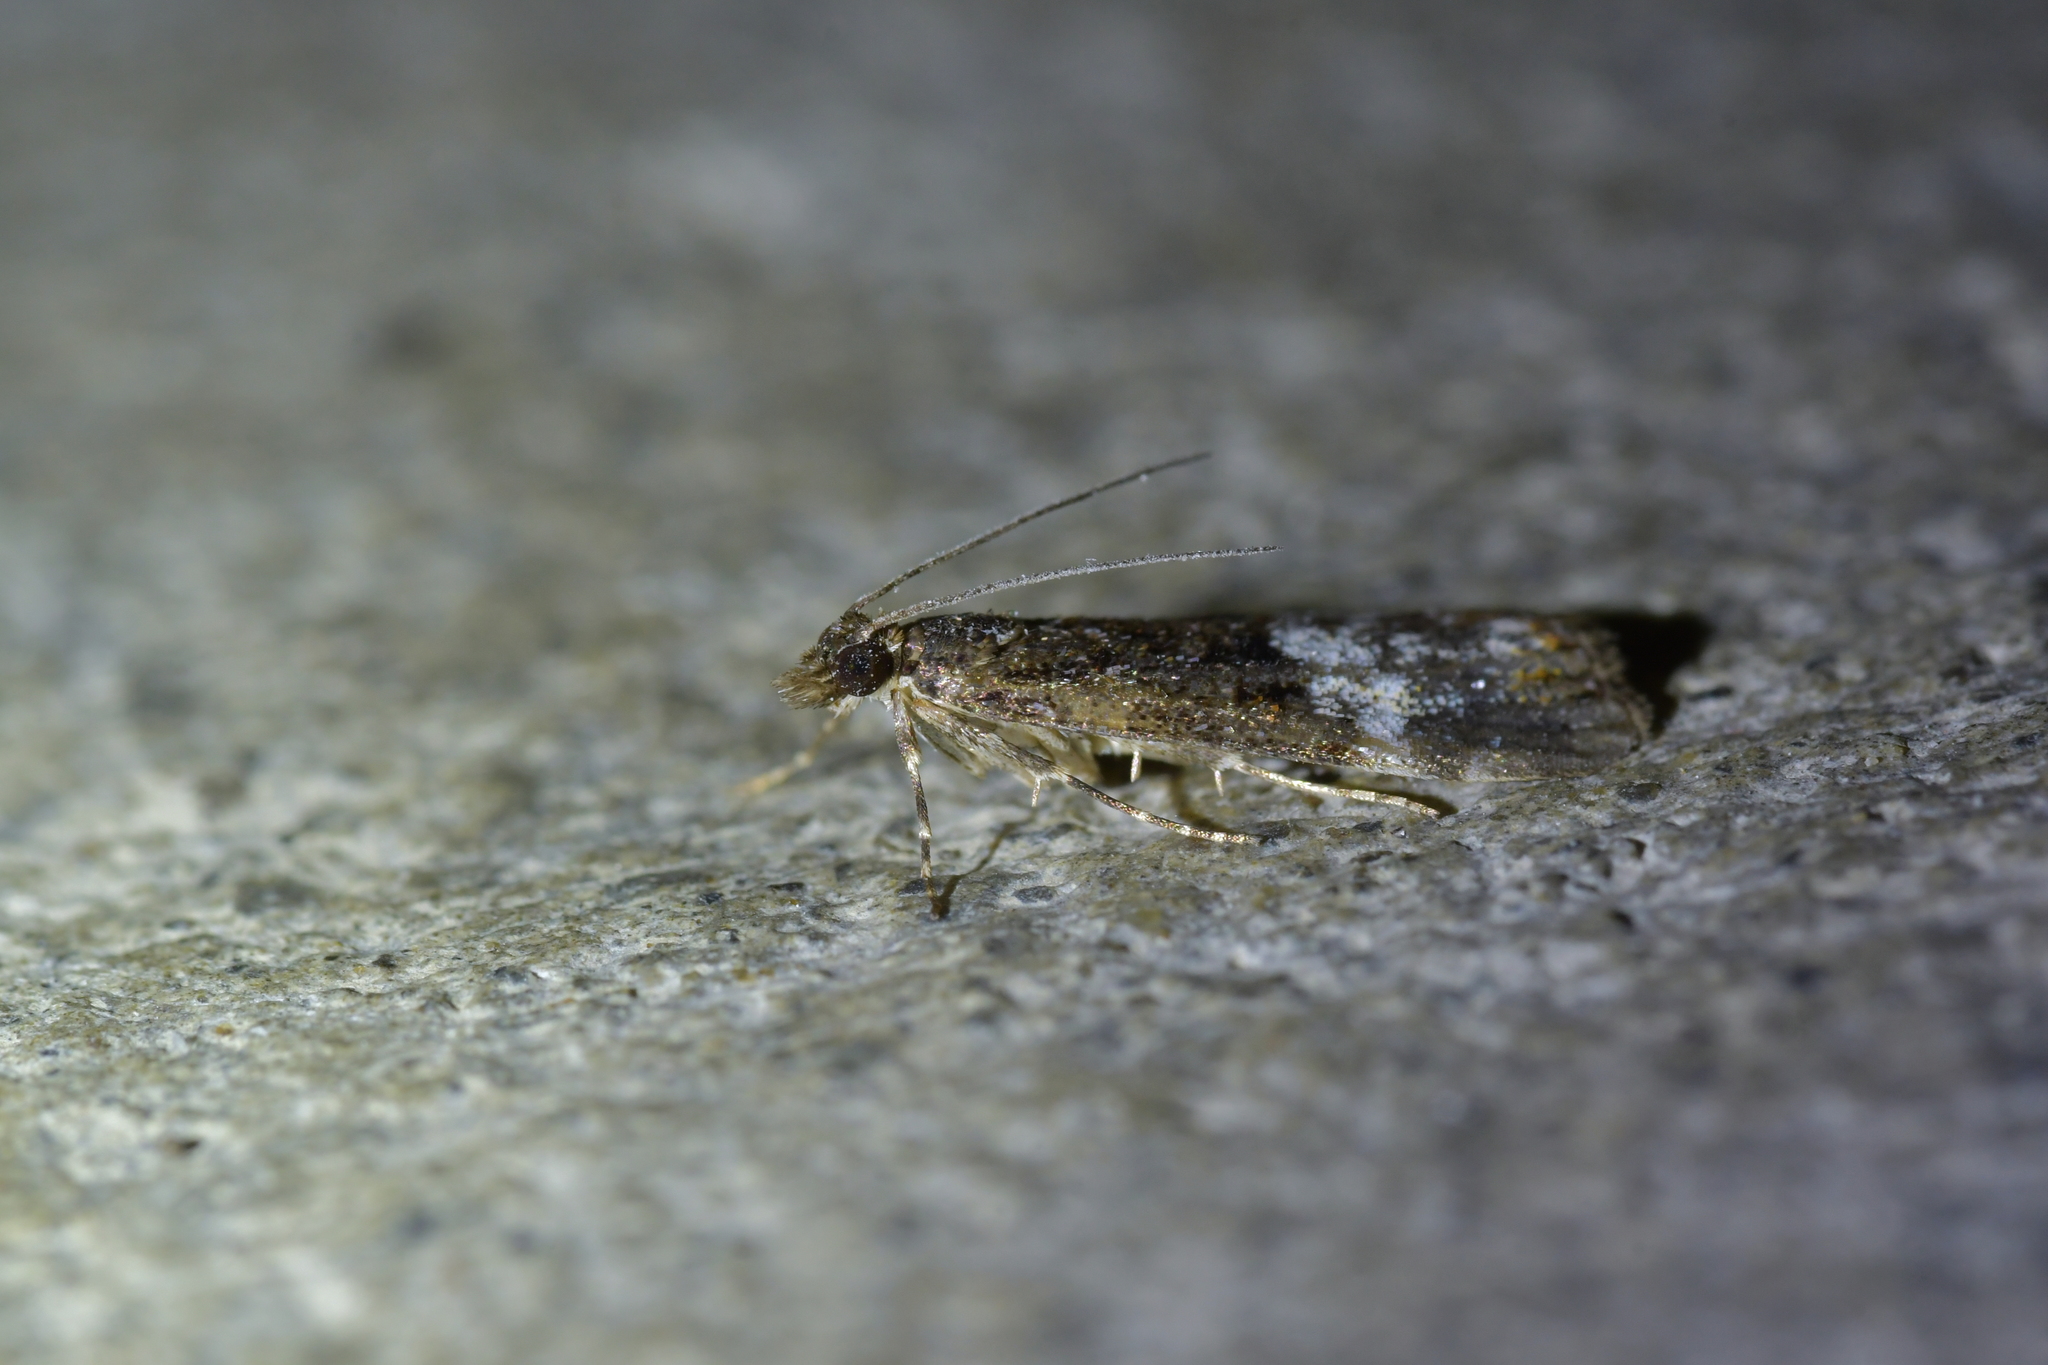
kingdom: Animalia
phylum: Arthropoda
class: Insecta
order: Lepidoptera
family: Crambidae
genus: Scoparia
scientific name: Scoparia minusculalis
